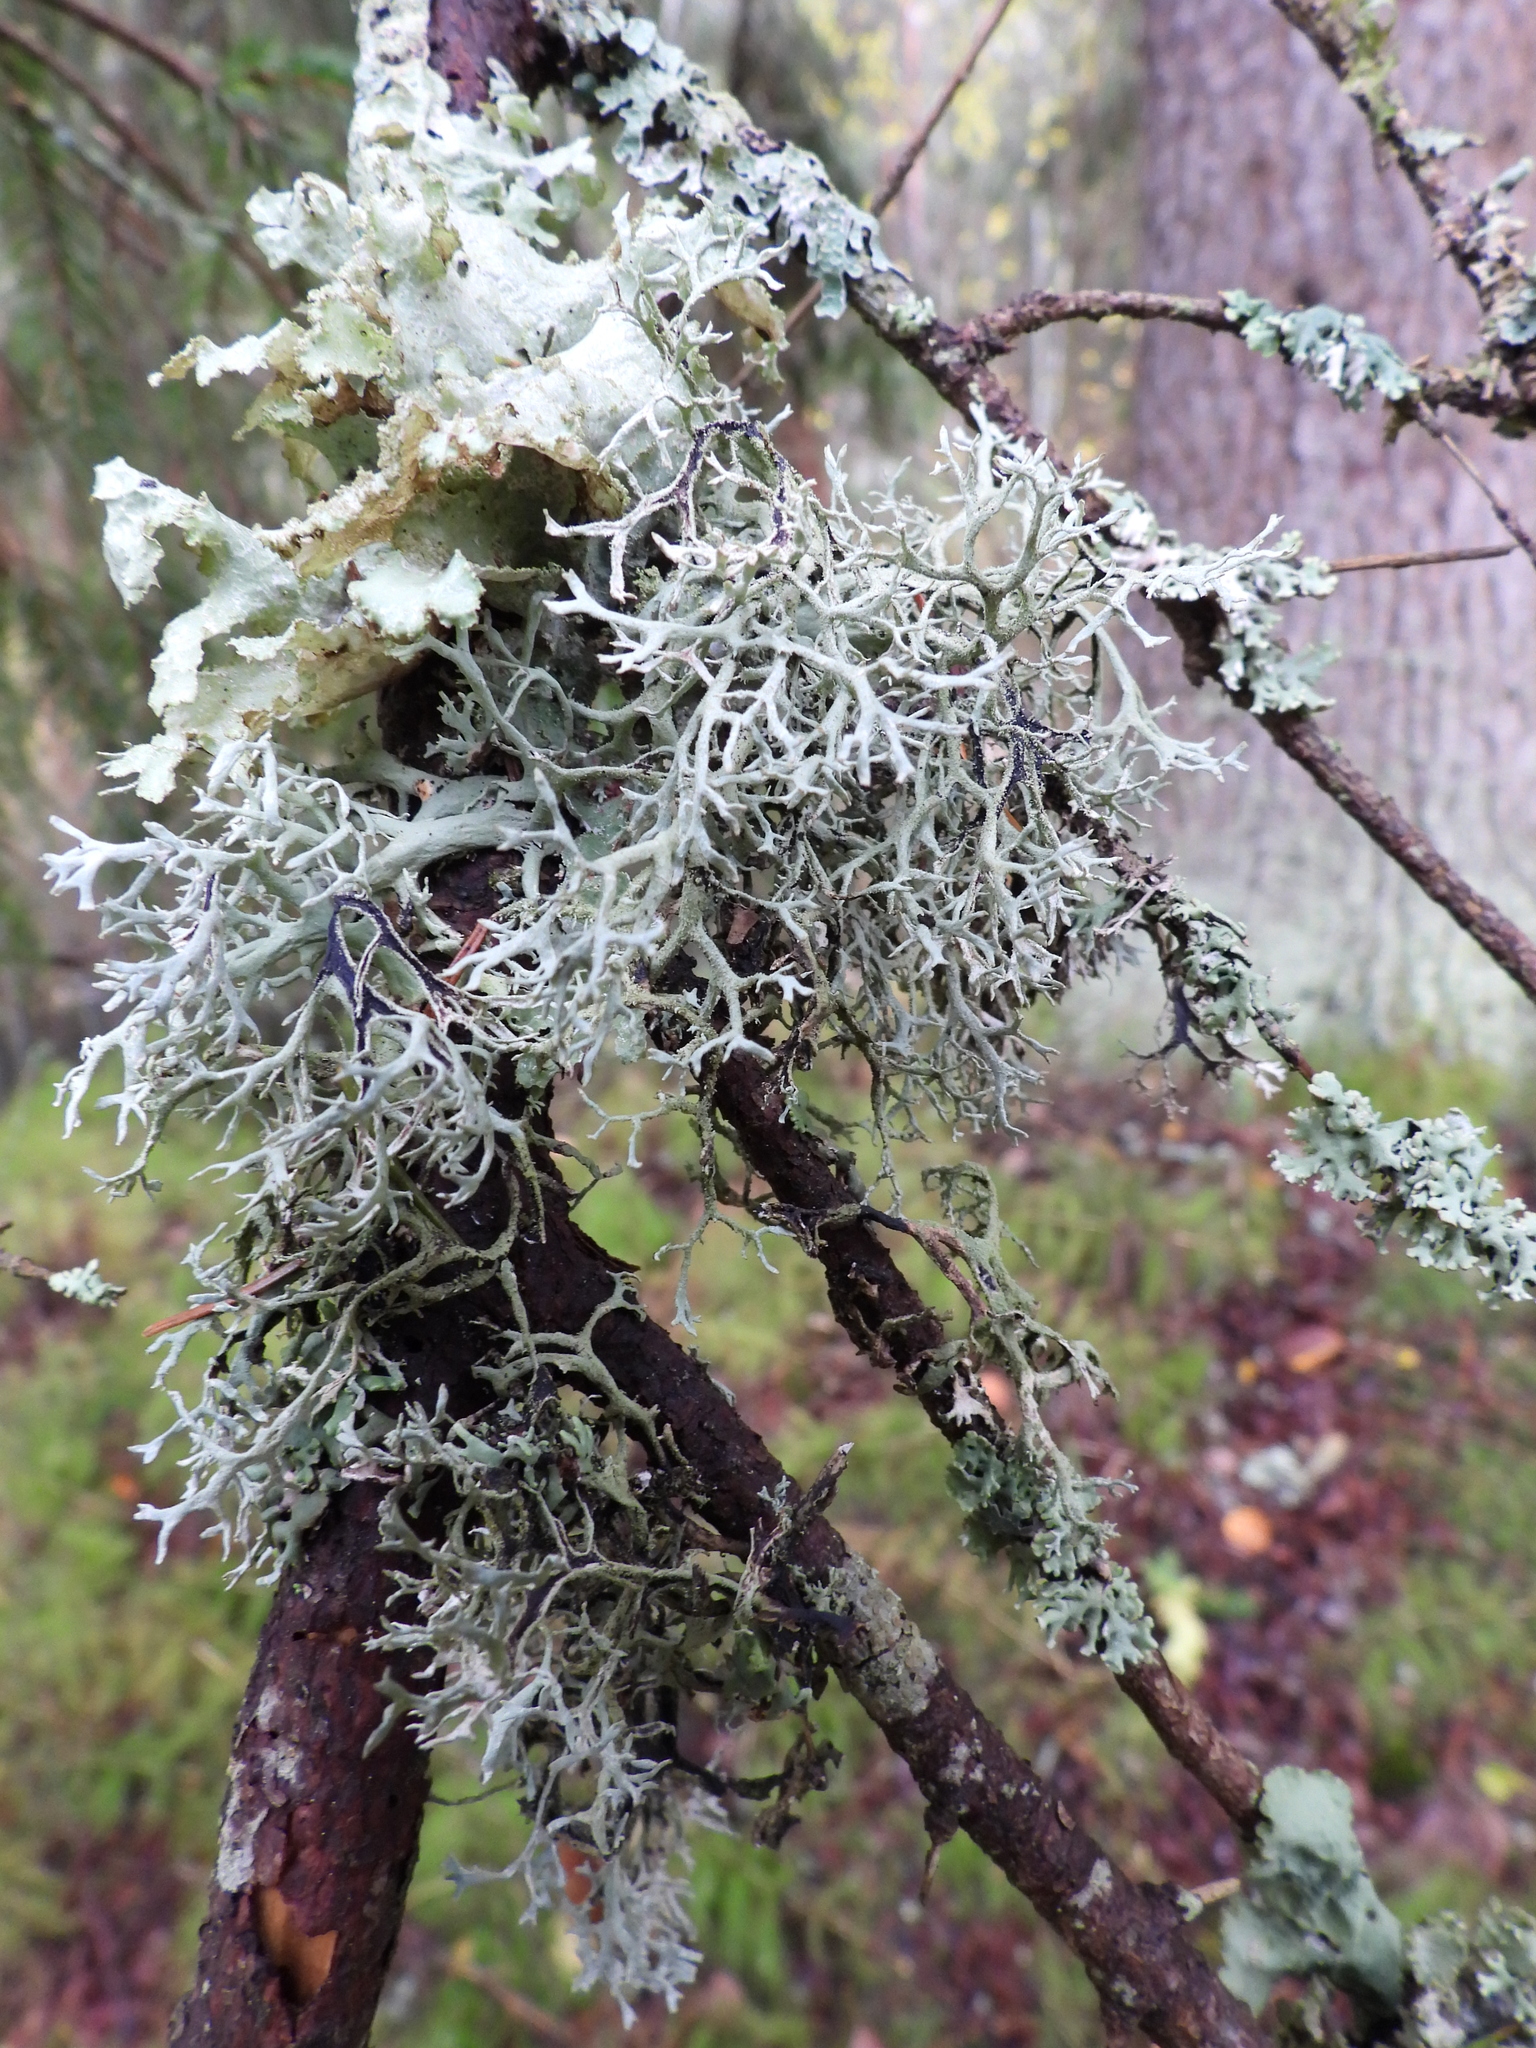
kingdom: Fungi
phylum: Ascomycota
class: Lecanoromycetes
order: Lecanorales
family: Parmeliaceae
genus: Pseudevernia
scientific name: Pseudevernia furfuracea
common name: Tree moss
